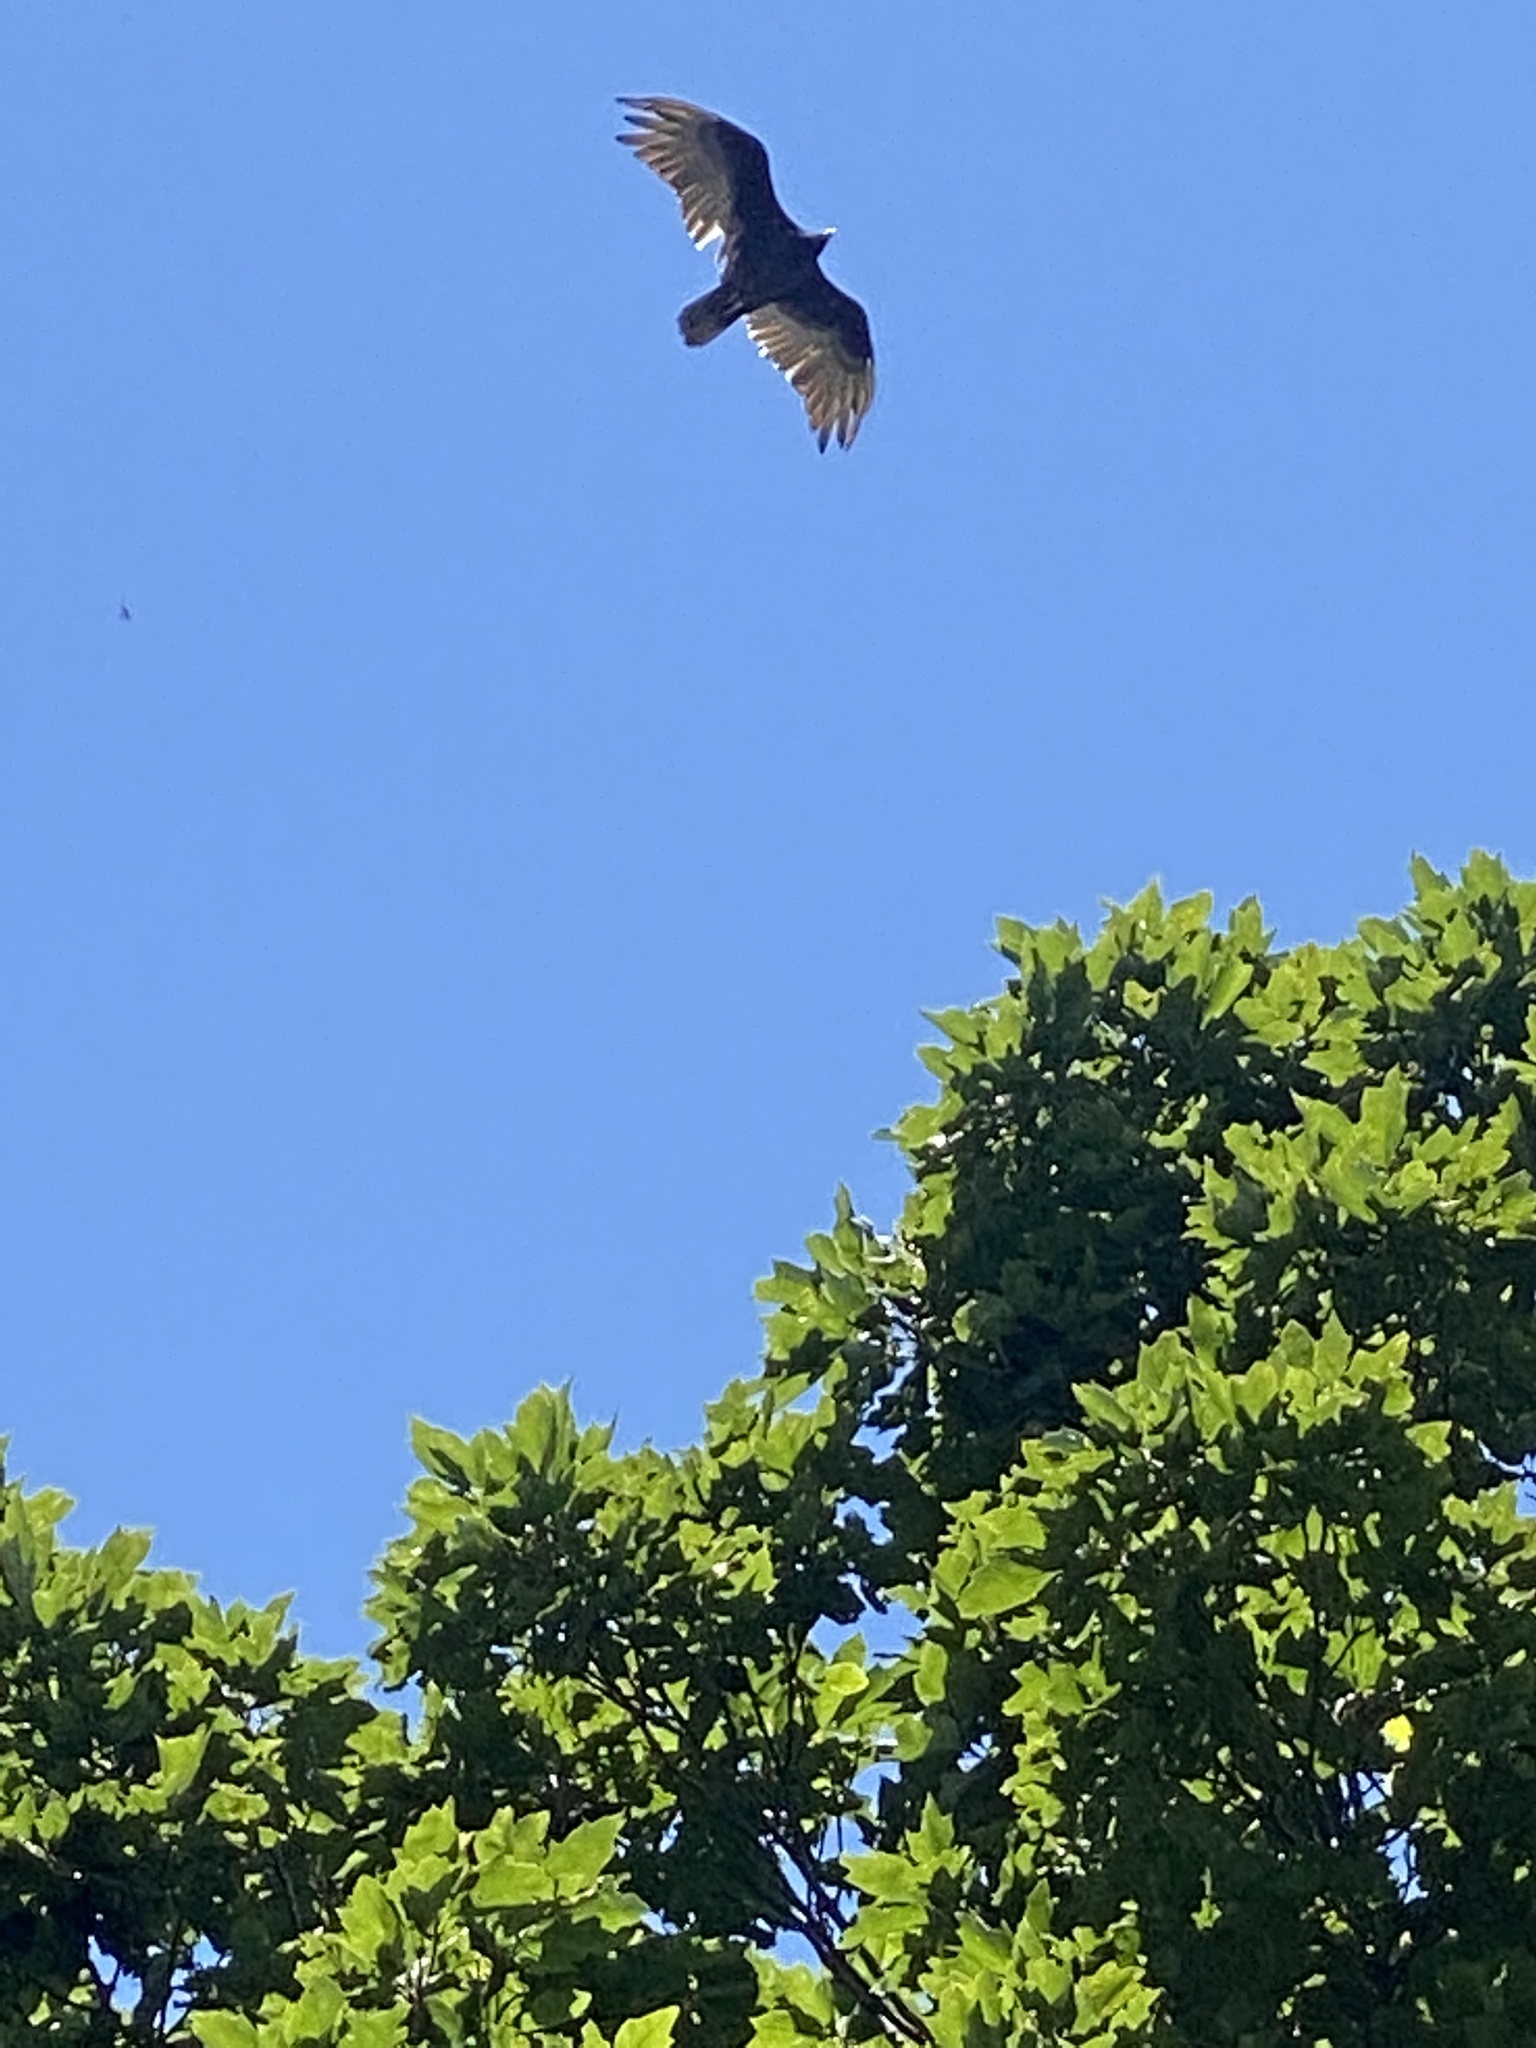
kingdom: Animalia
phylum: Chordata
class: Aves
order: Accipitriformes
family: Cathartidae
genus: Cathartes
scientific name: Cathartes aura
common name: Turkey vulture
